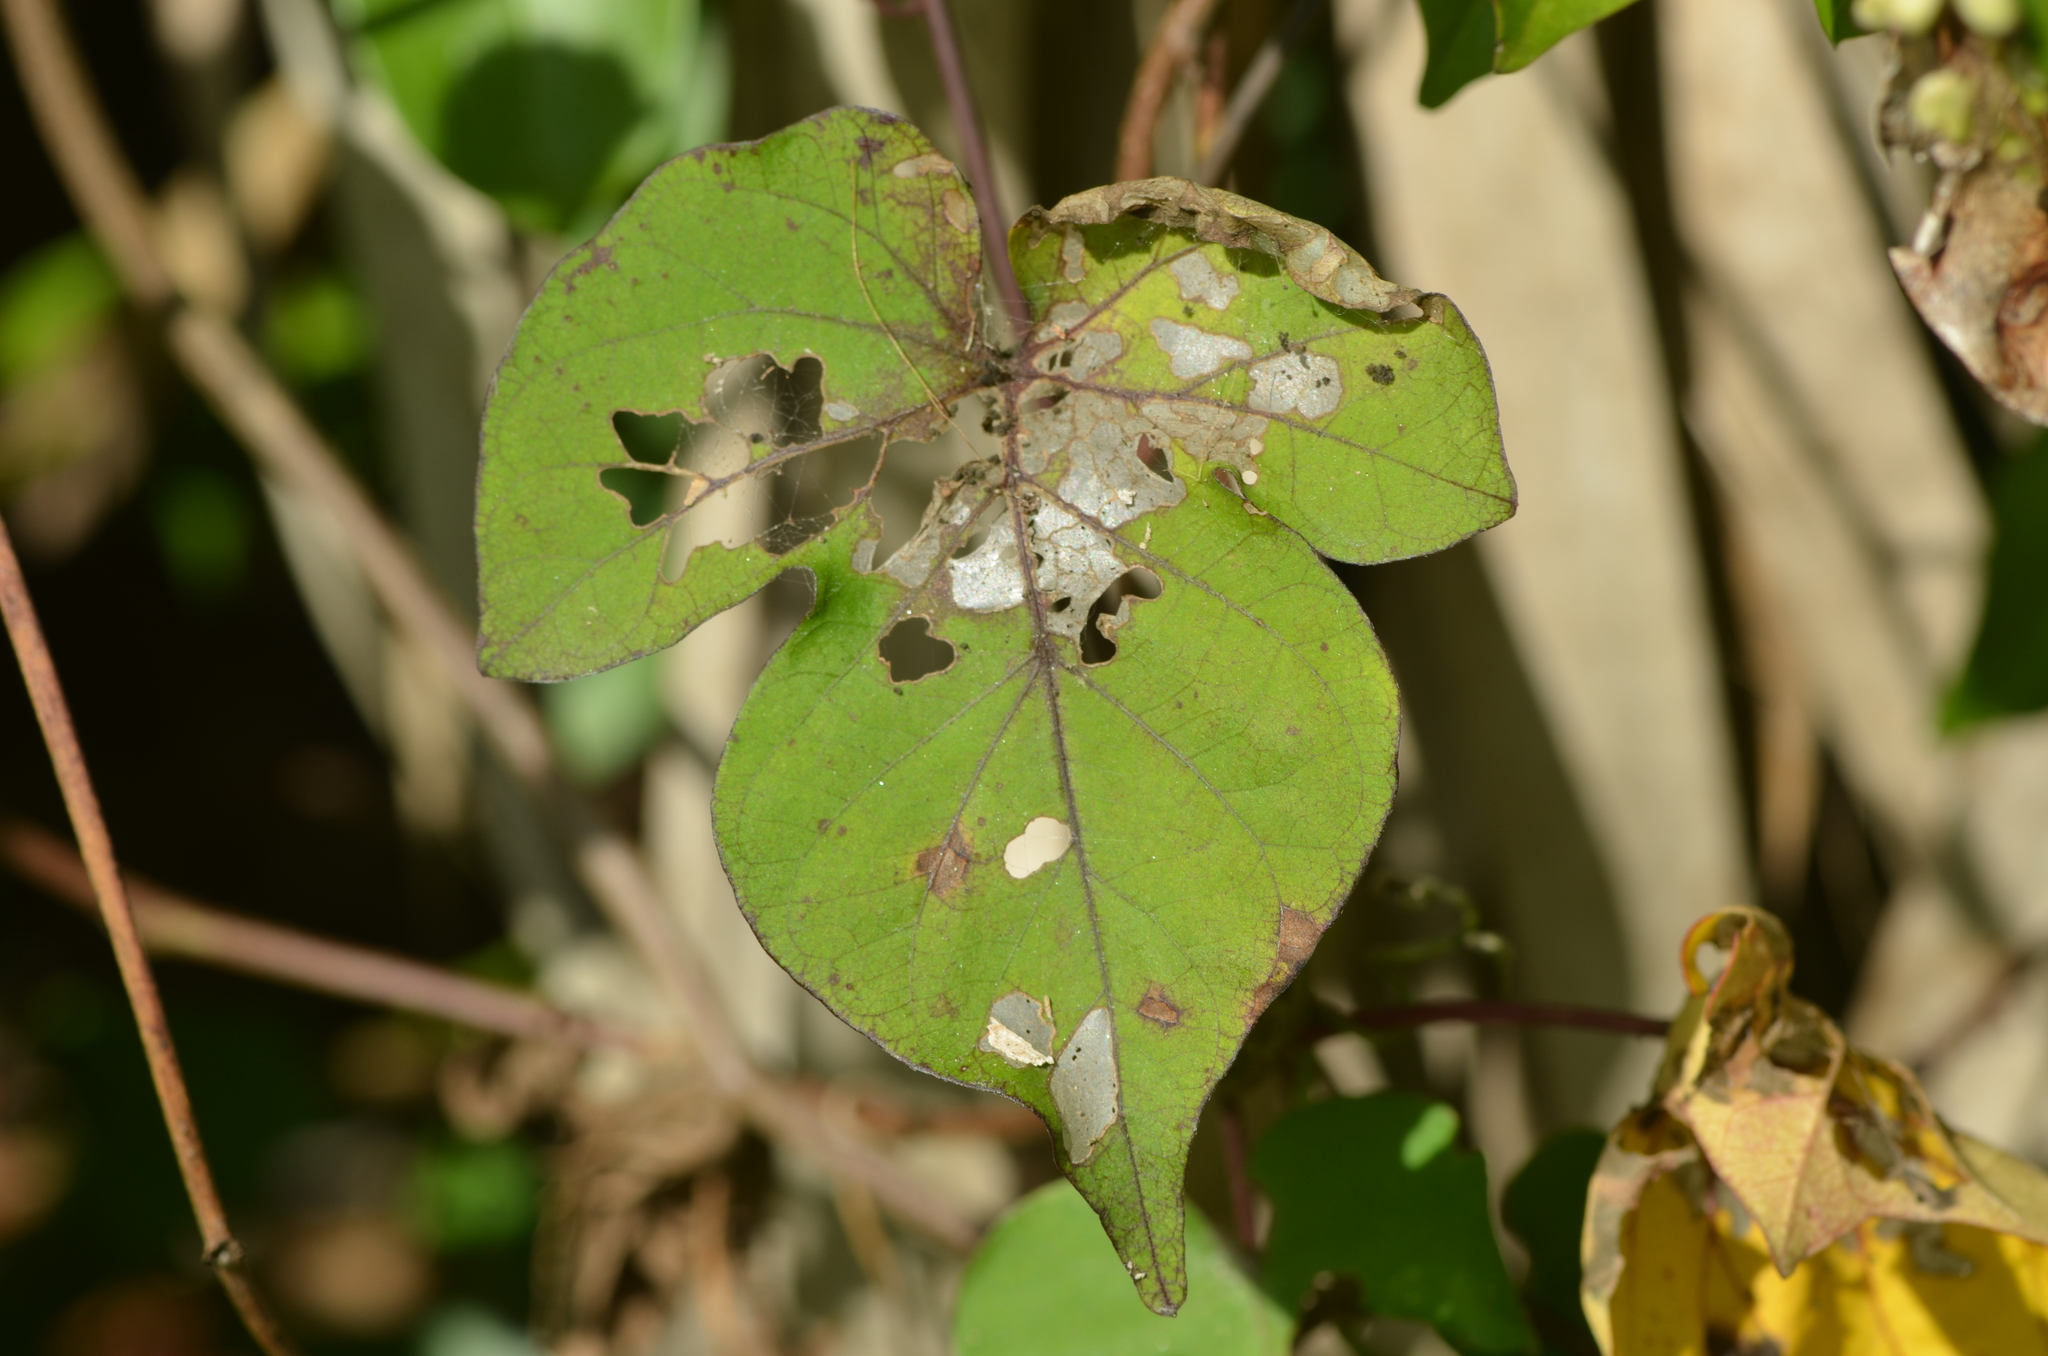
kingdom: Plantae
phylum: Tracheophyta
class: Magnoliopsida
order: Solanales
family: Convolvulaceae
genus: Ipomoea
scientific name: Ipomoea indica
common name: Blue dawnflower
